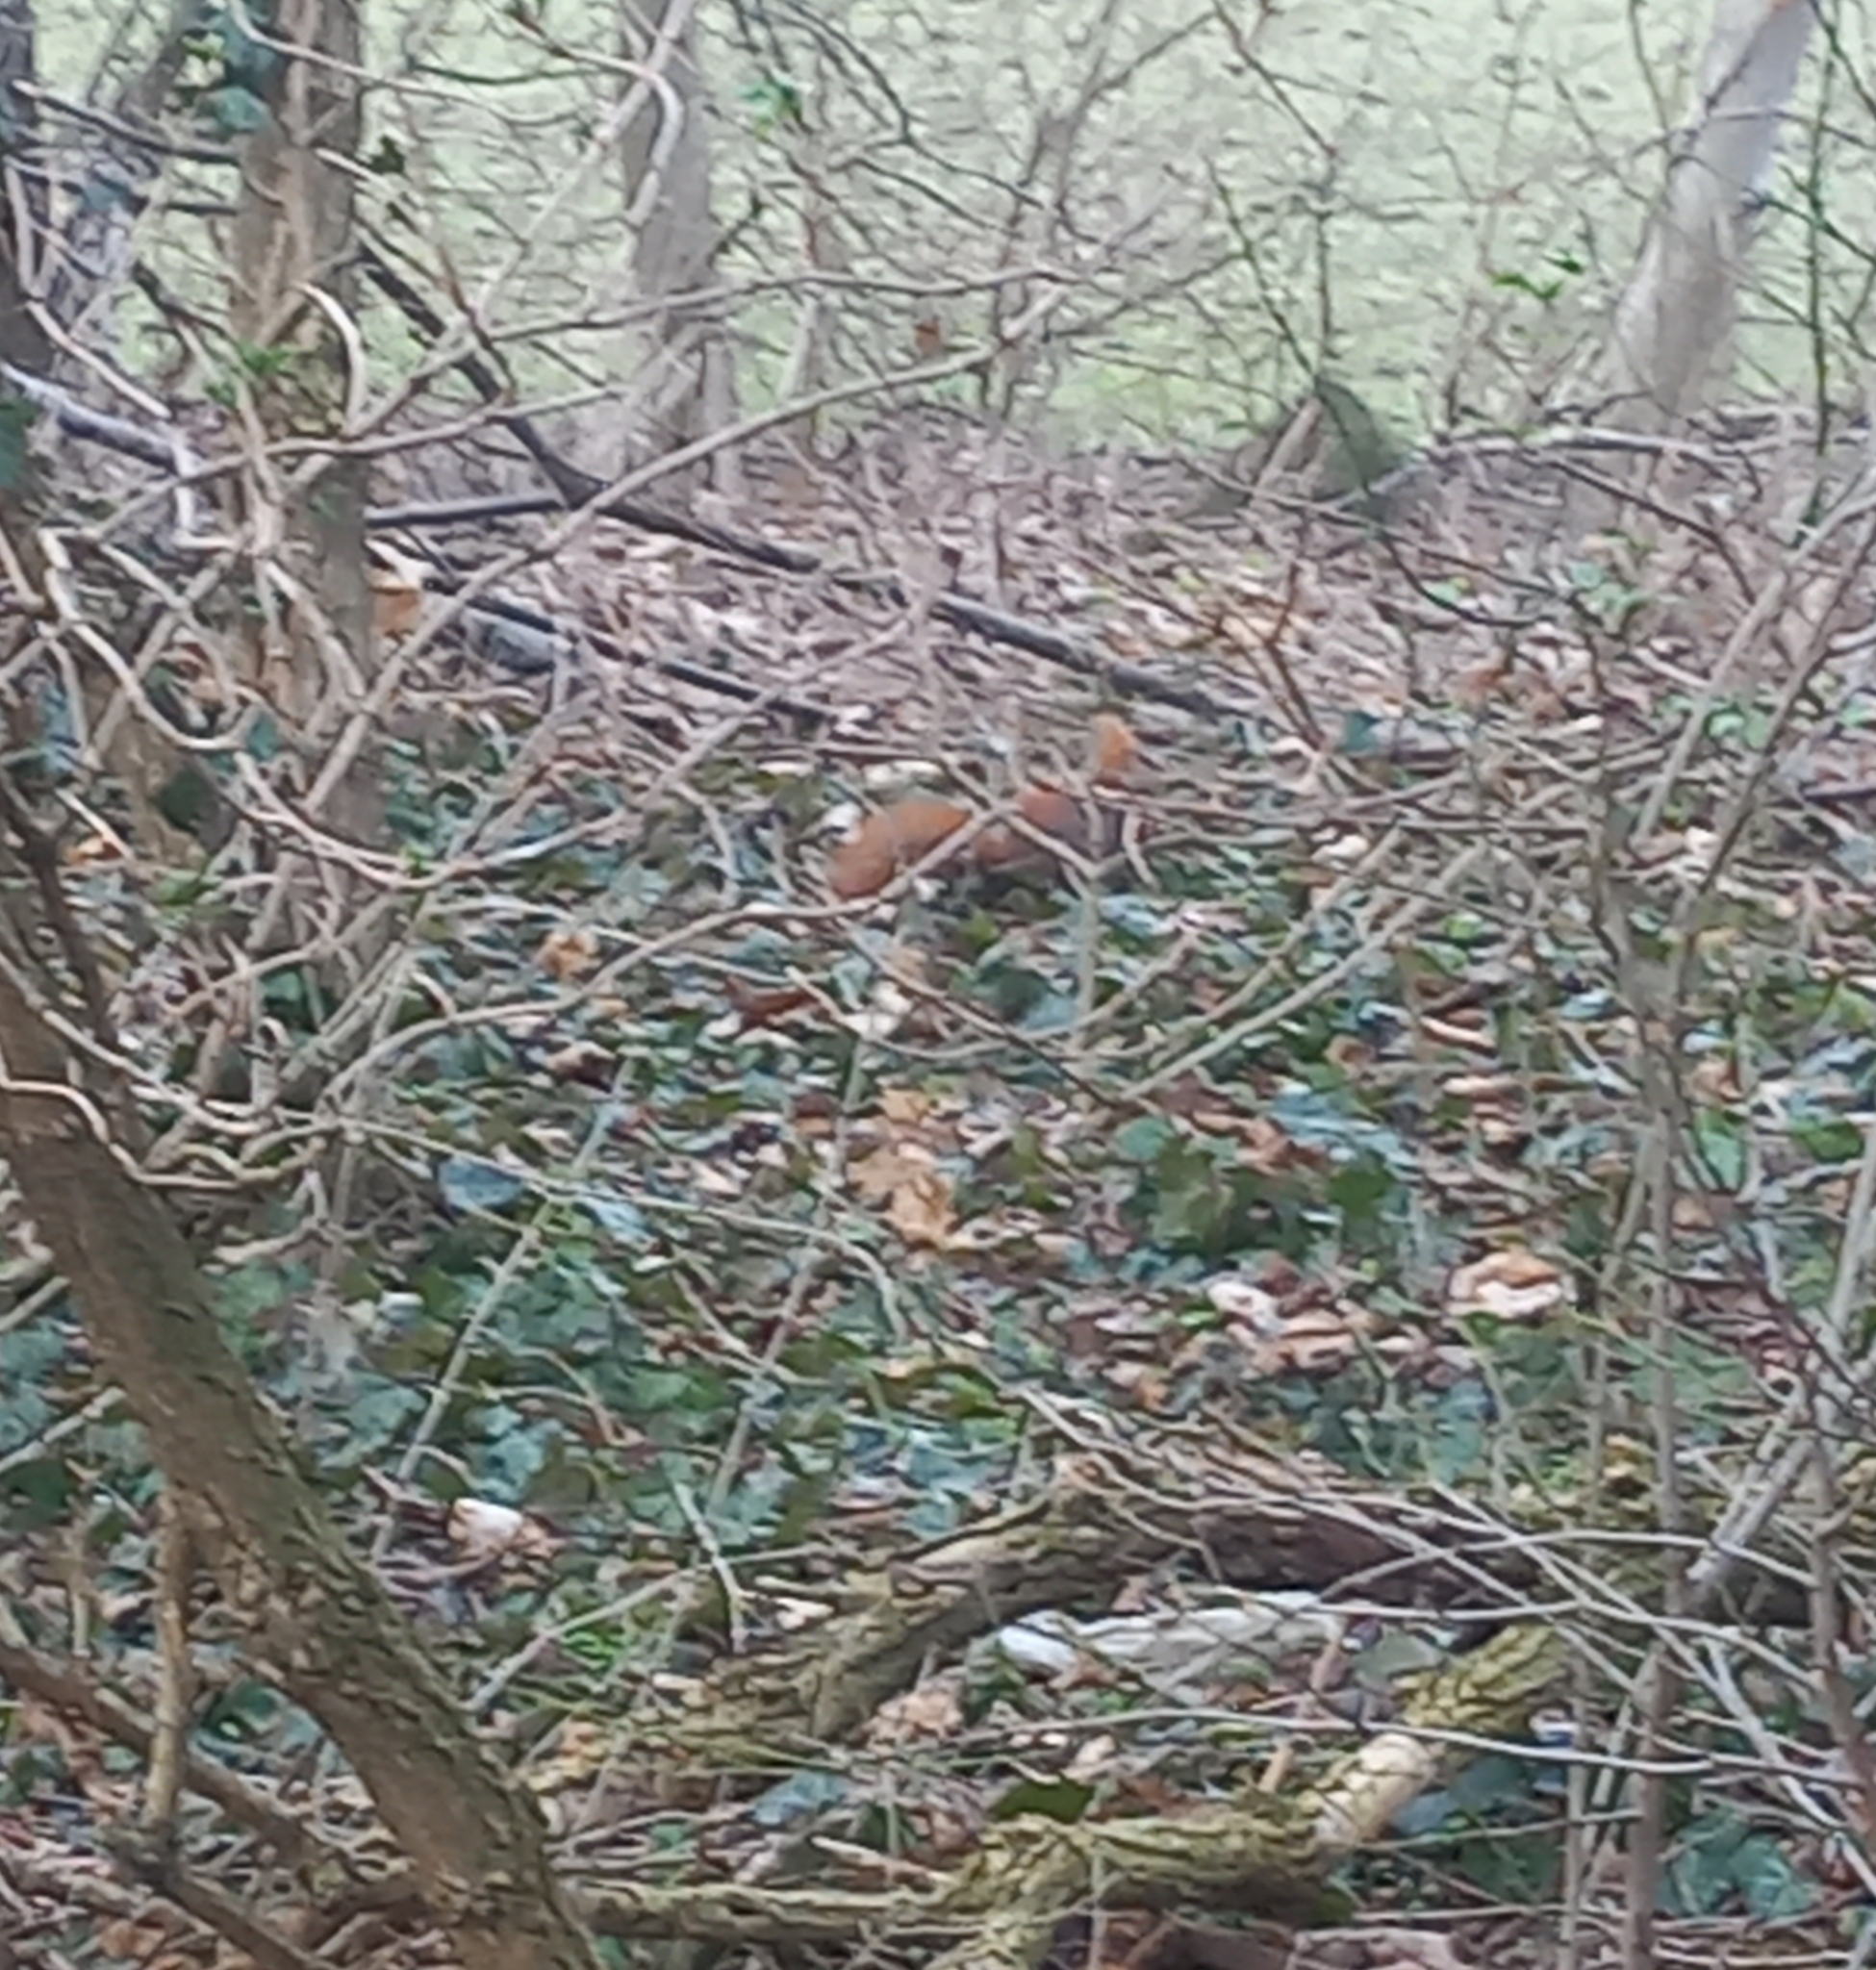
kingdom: Animalia
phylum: Chordata
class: Mammalia
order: Rodentia
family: Sciuridae
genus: Sciurus
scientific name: Sciurus vulgaris
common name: Eurasian red squirrel
